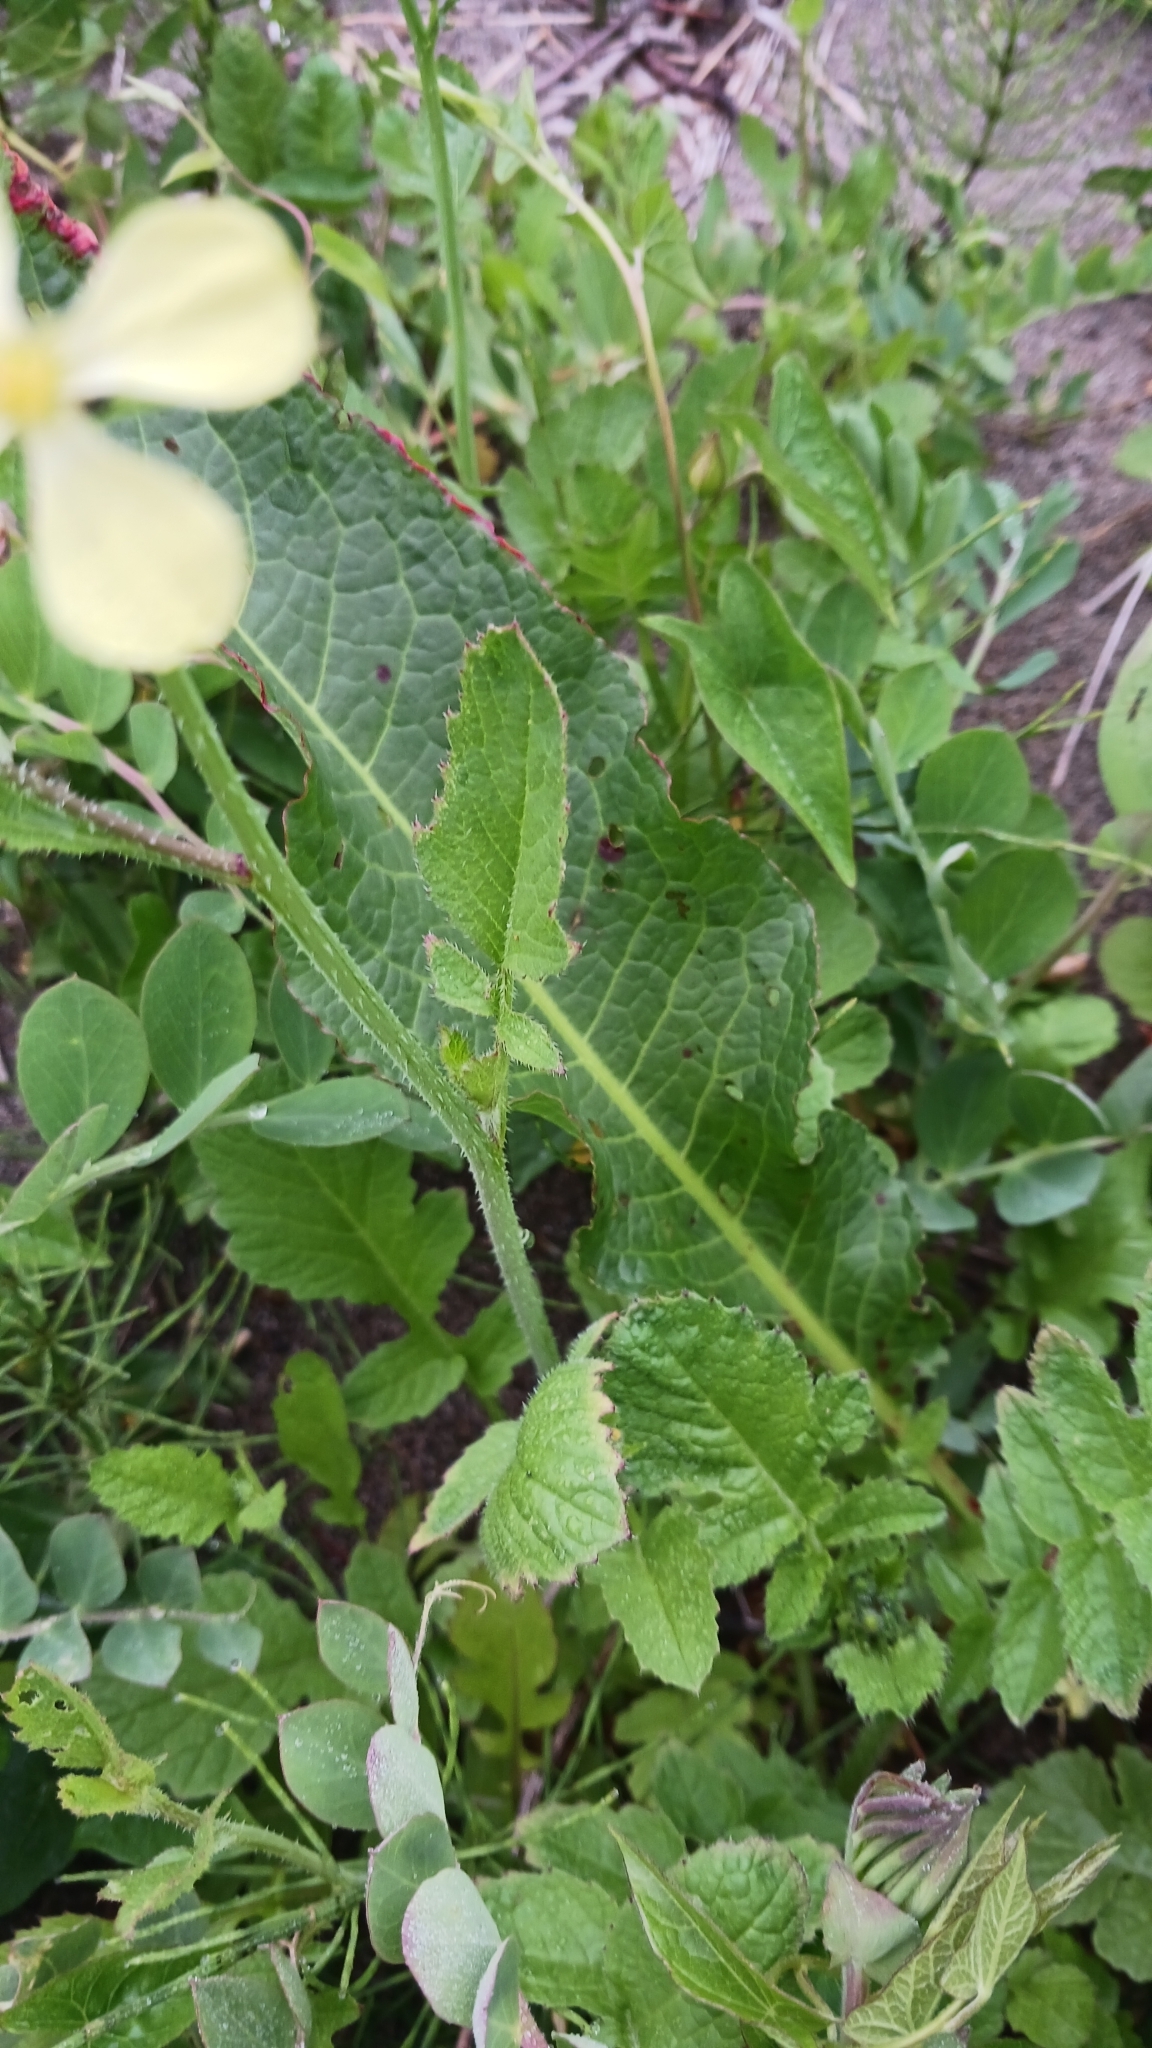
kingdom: Plantae
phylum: Tracheophyta
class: Magnoliopsida
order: Brassicales
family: Brassicaceae
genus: Raphanus
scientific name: Raphanus raphanistrum
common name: Wild radish
